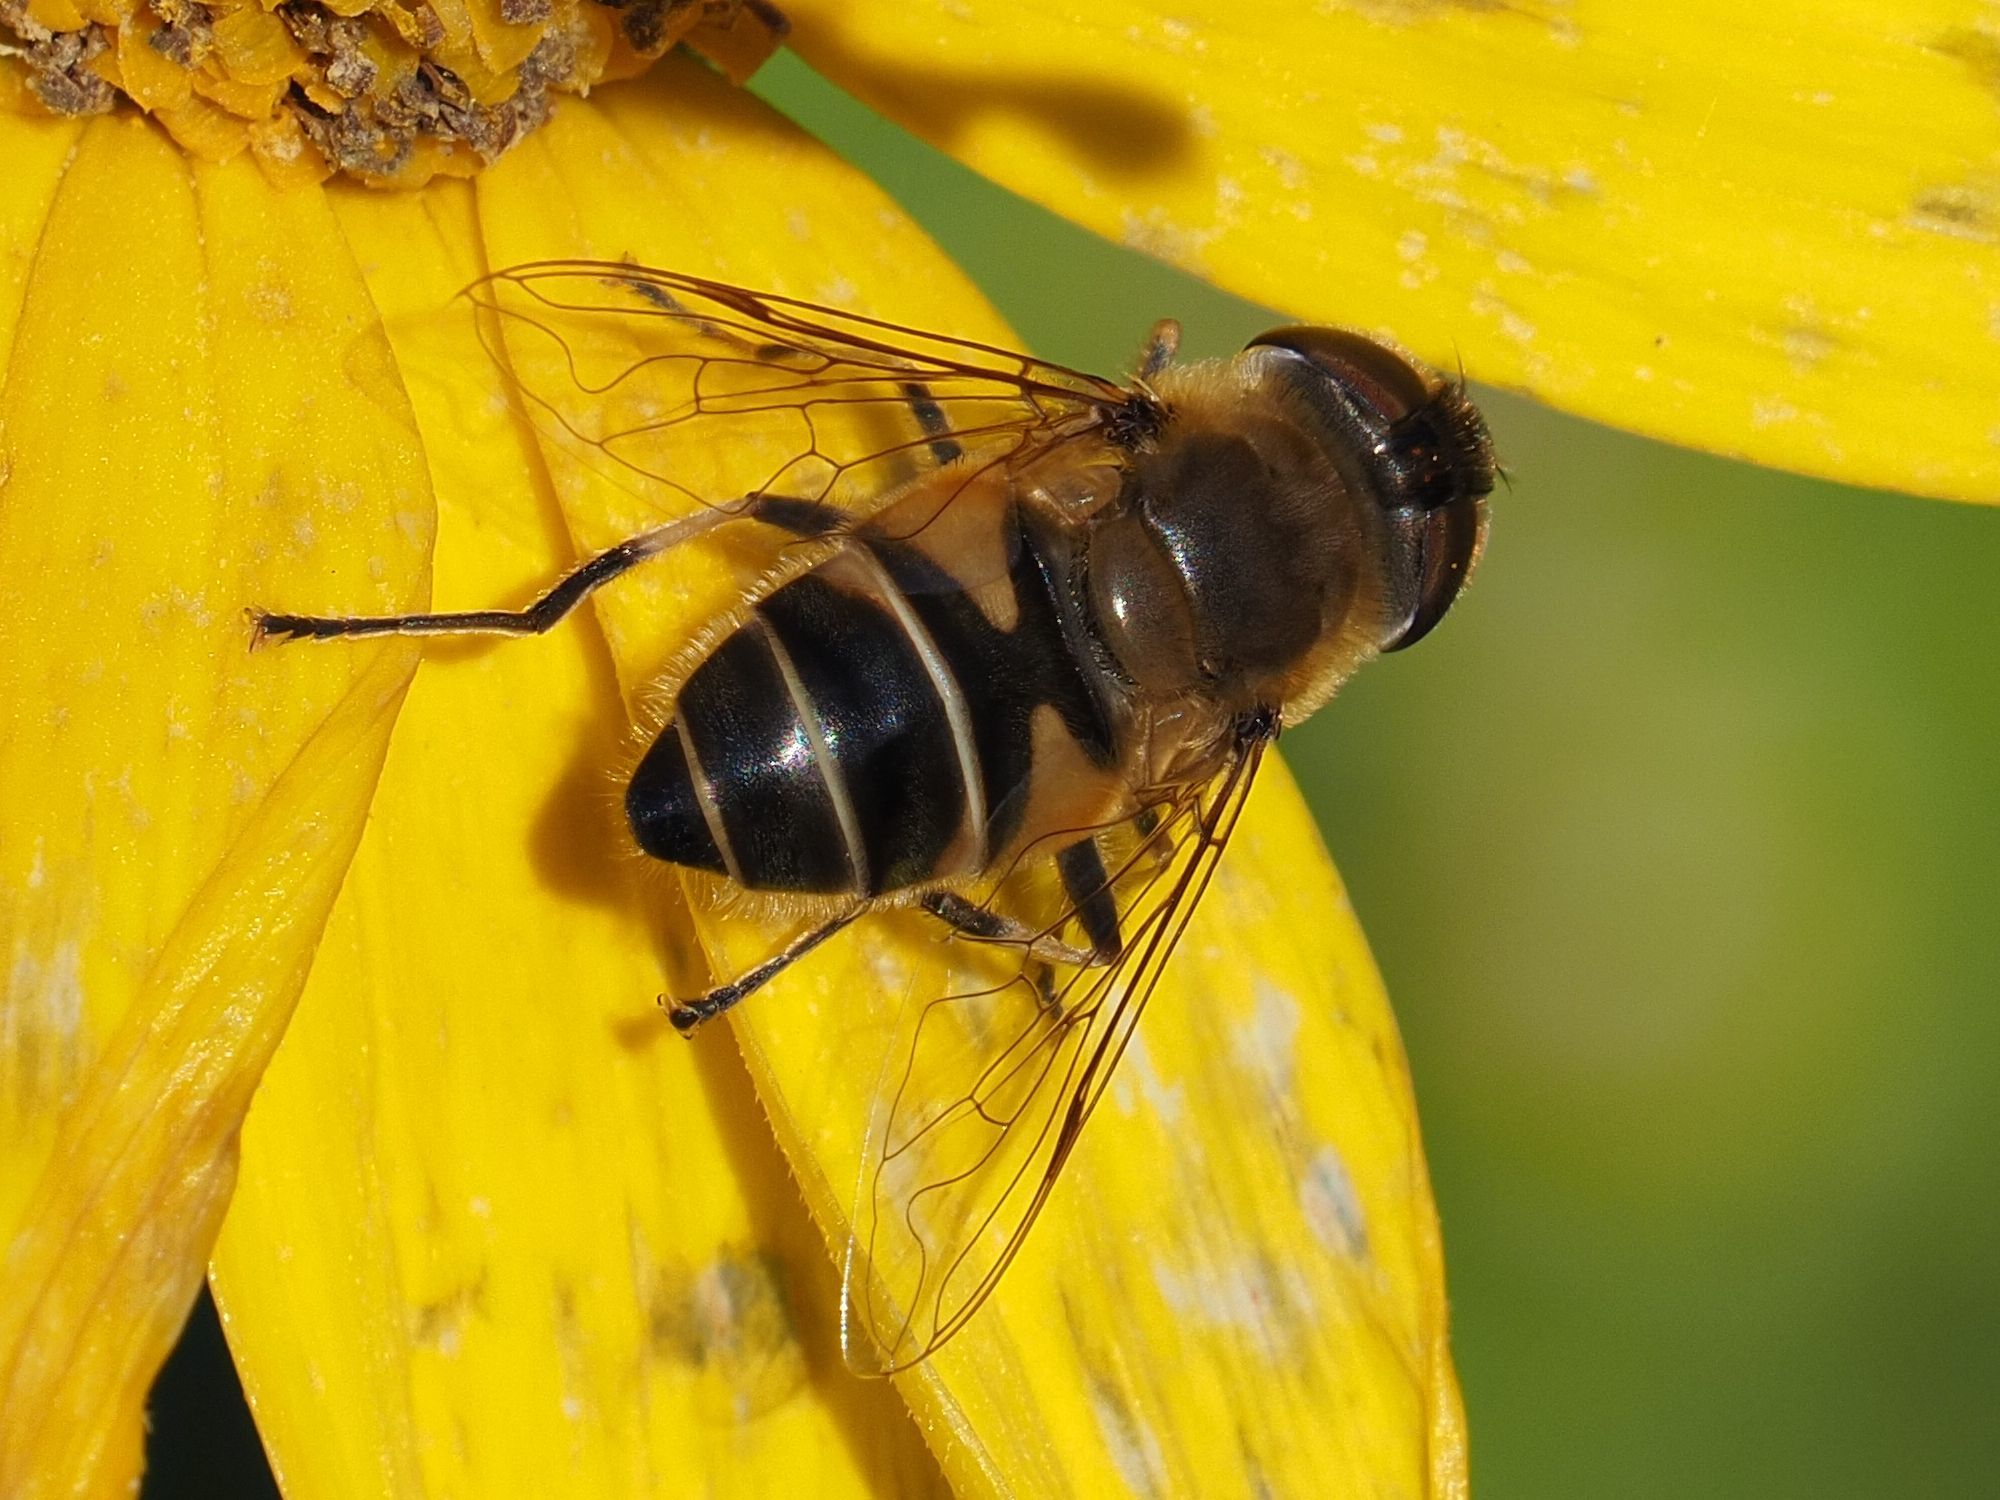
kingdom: Animalia
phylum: Arthropoda
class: Insecta
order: Diptera
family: Syrphidae
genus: Eristalis
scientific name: Eristalis pertinax
